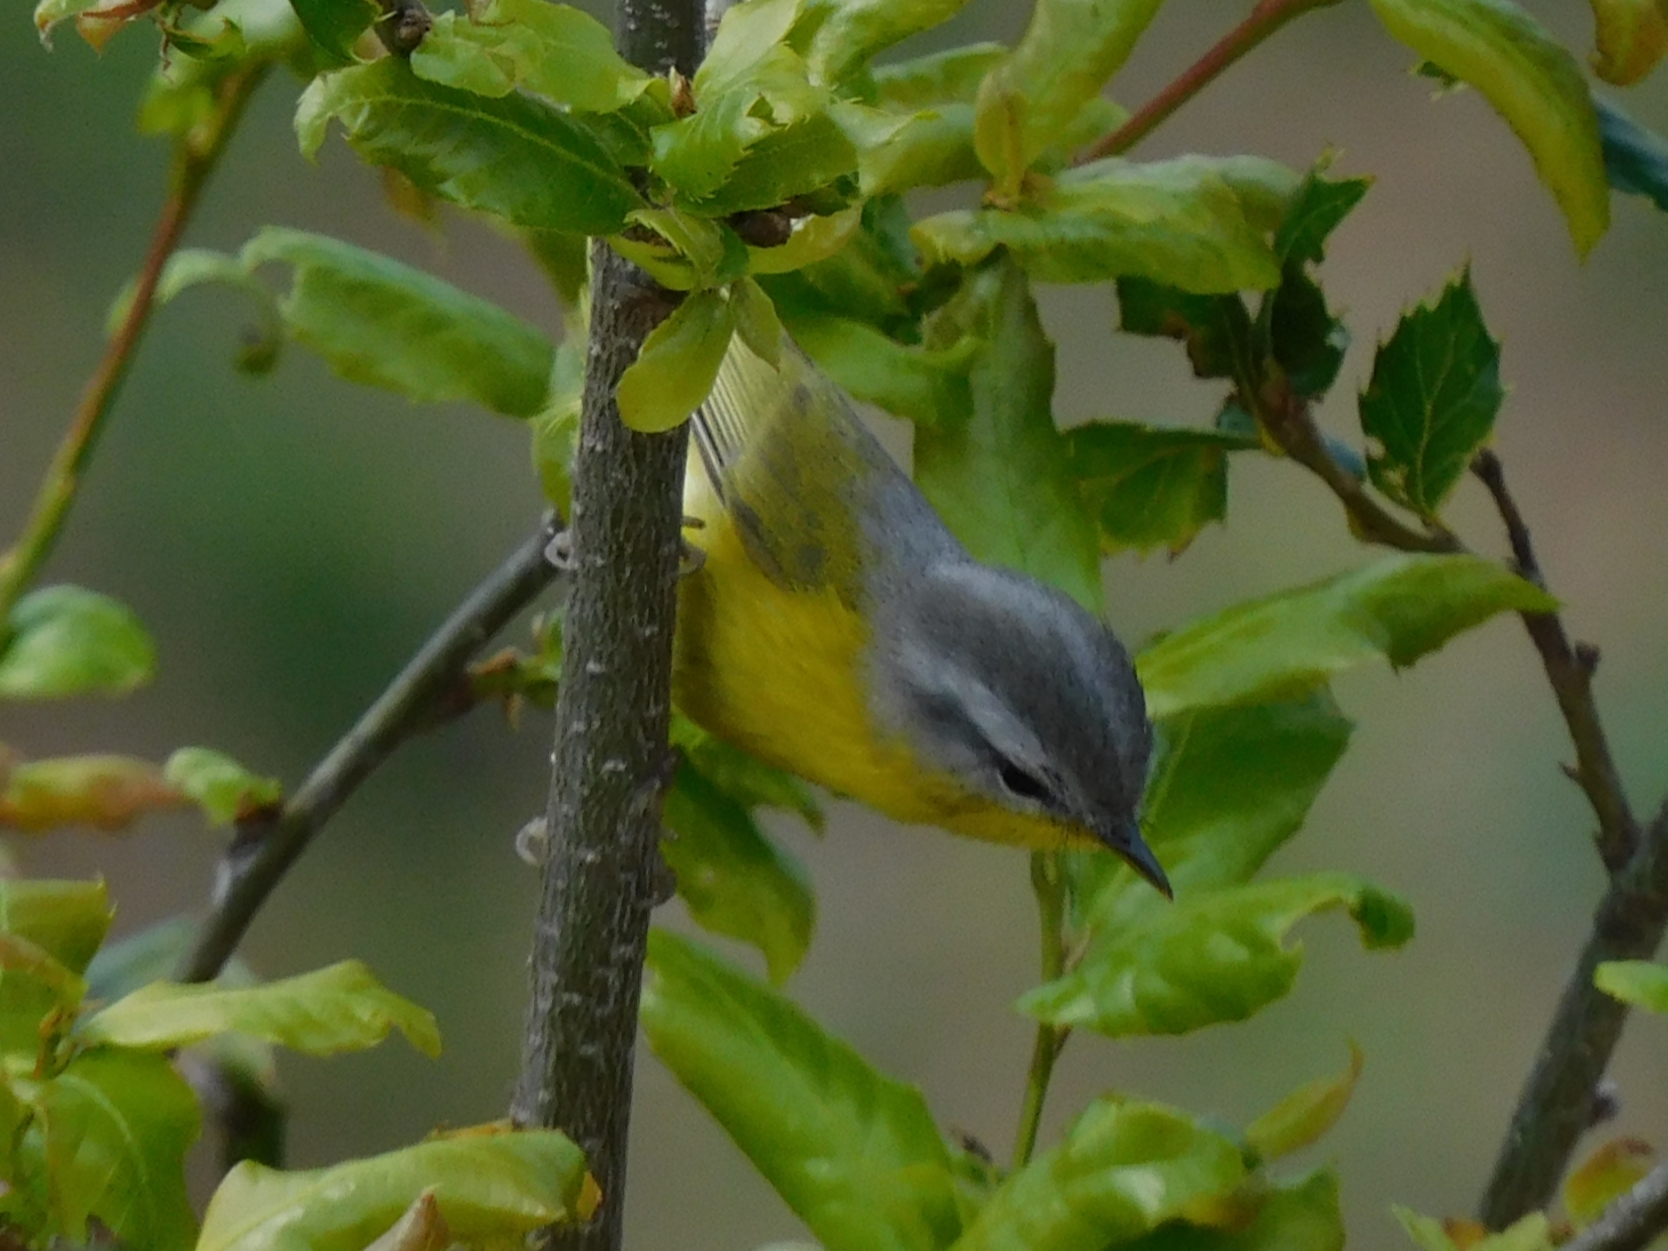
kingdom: Animalia
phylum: Chordata
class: Aves
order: Passeriformes
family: Phylloscopidae
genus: Phylloscopus
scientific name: Phylloscopus xanthoschistos
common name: Grey-hooded warbler
